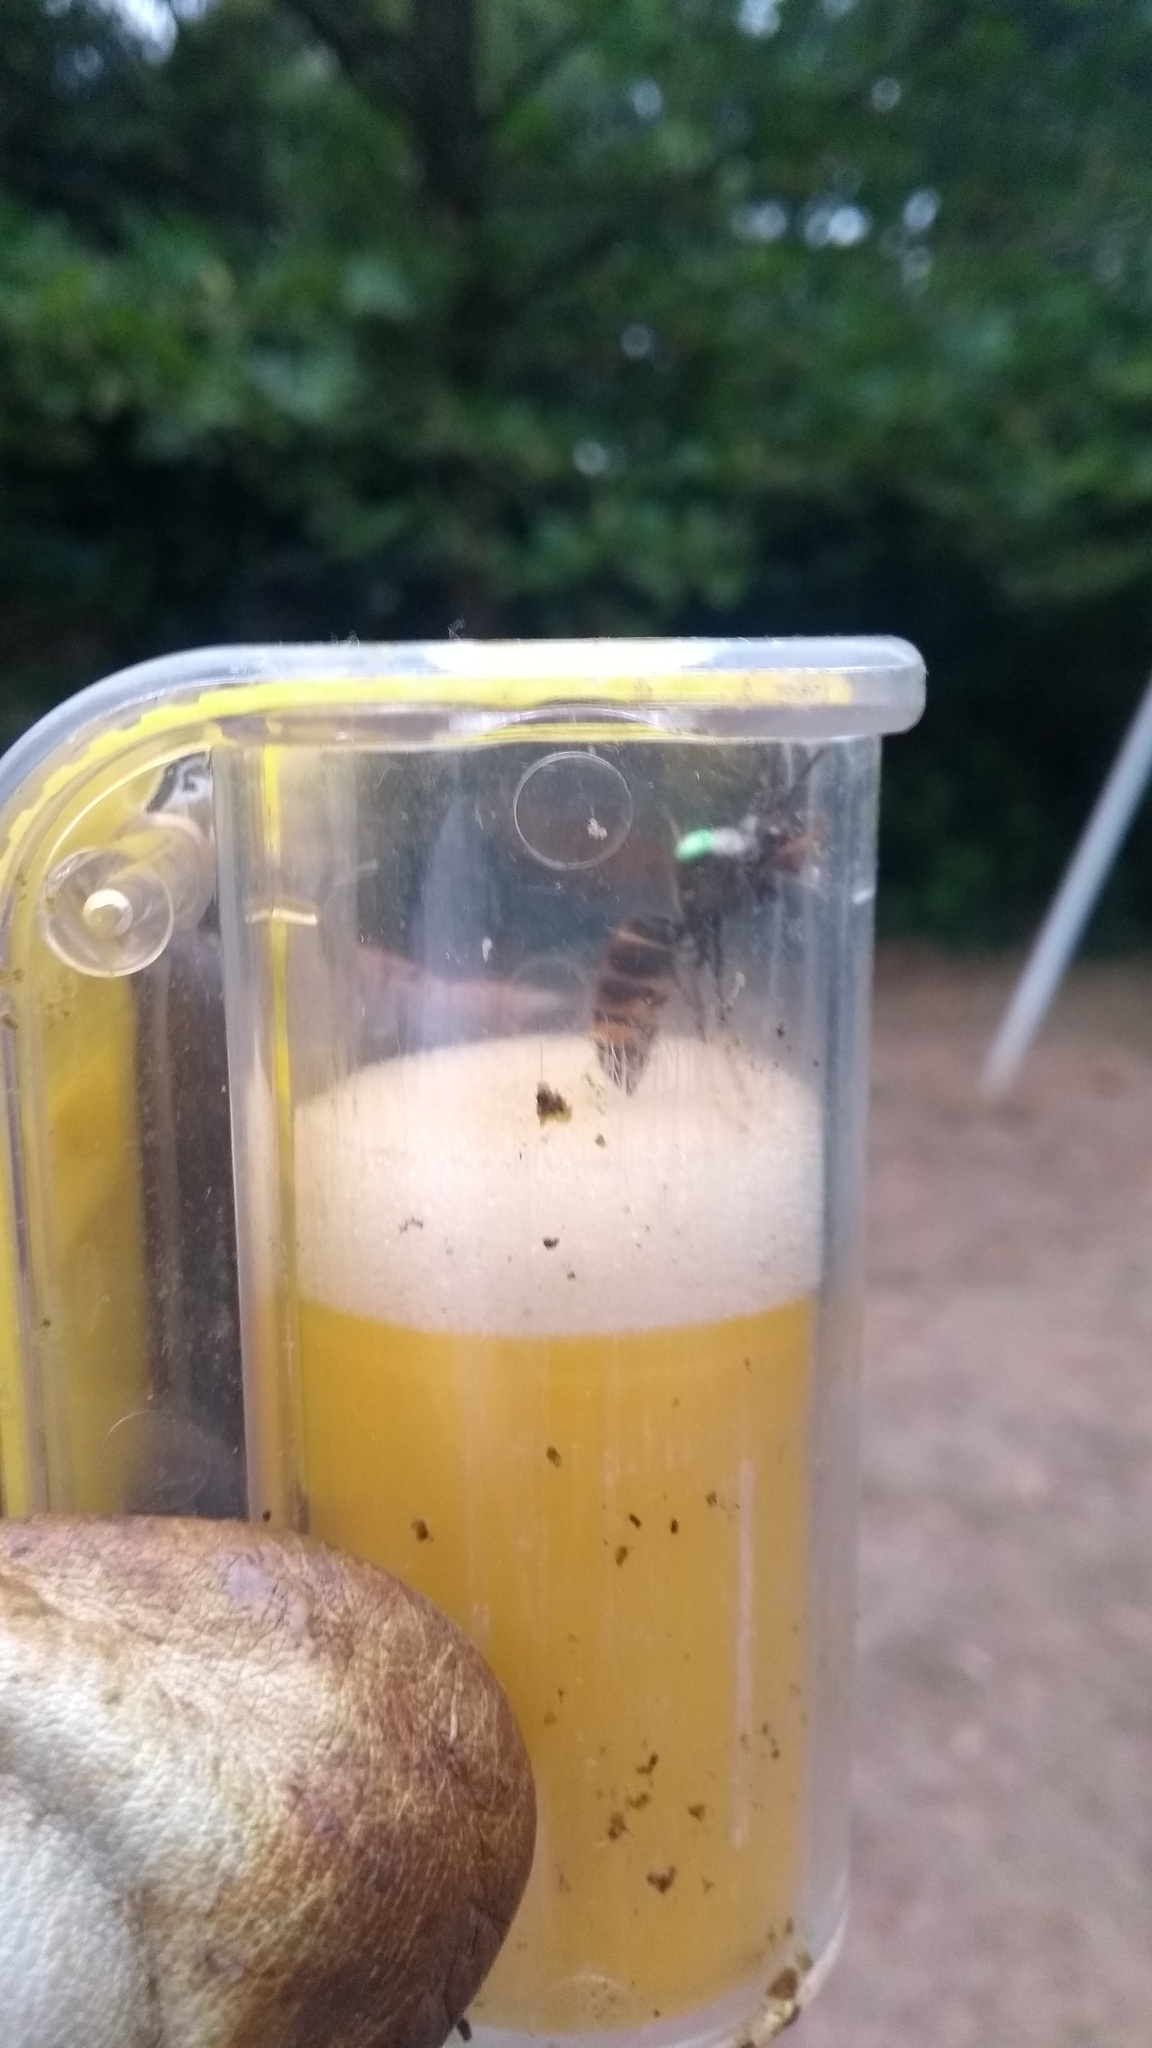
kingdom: Animalia
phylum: Arthropoda
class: Insecta
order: Hymenoptera
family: Vespidae
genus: Vespa
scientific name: Vespa velutina
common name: Asian hornet
